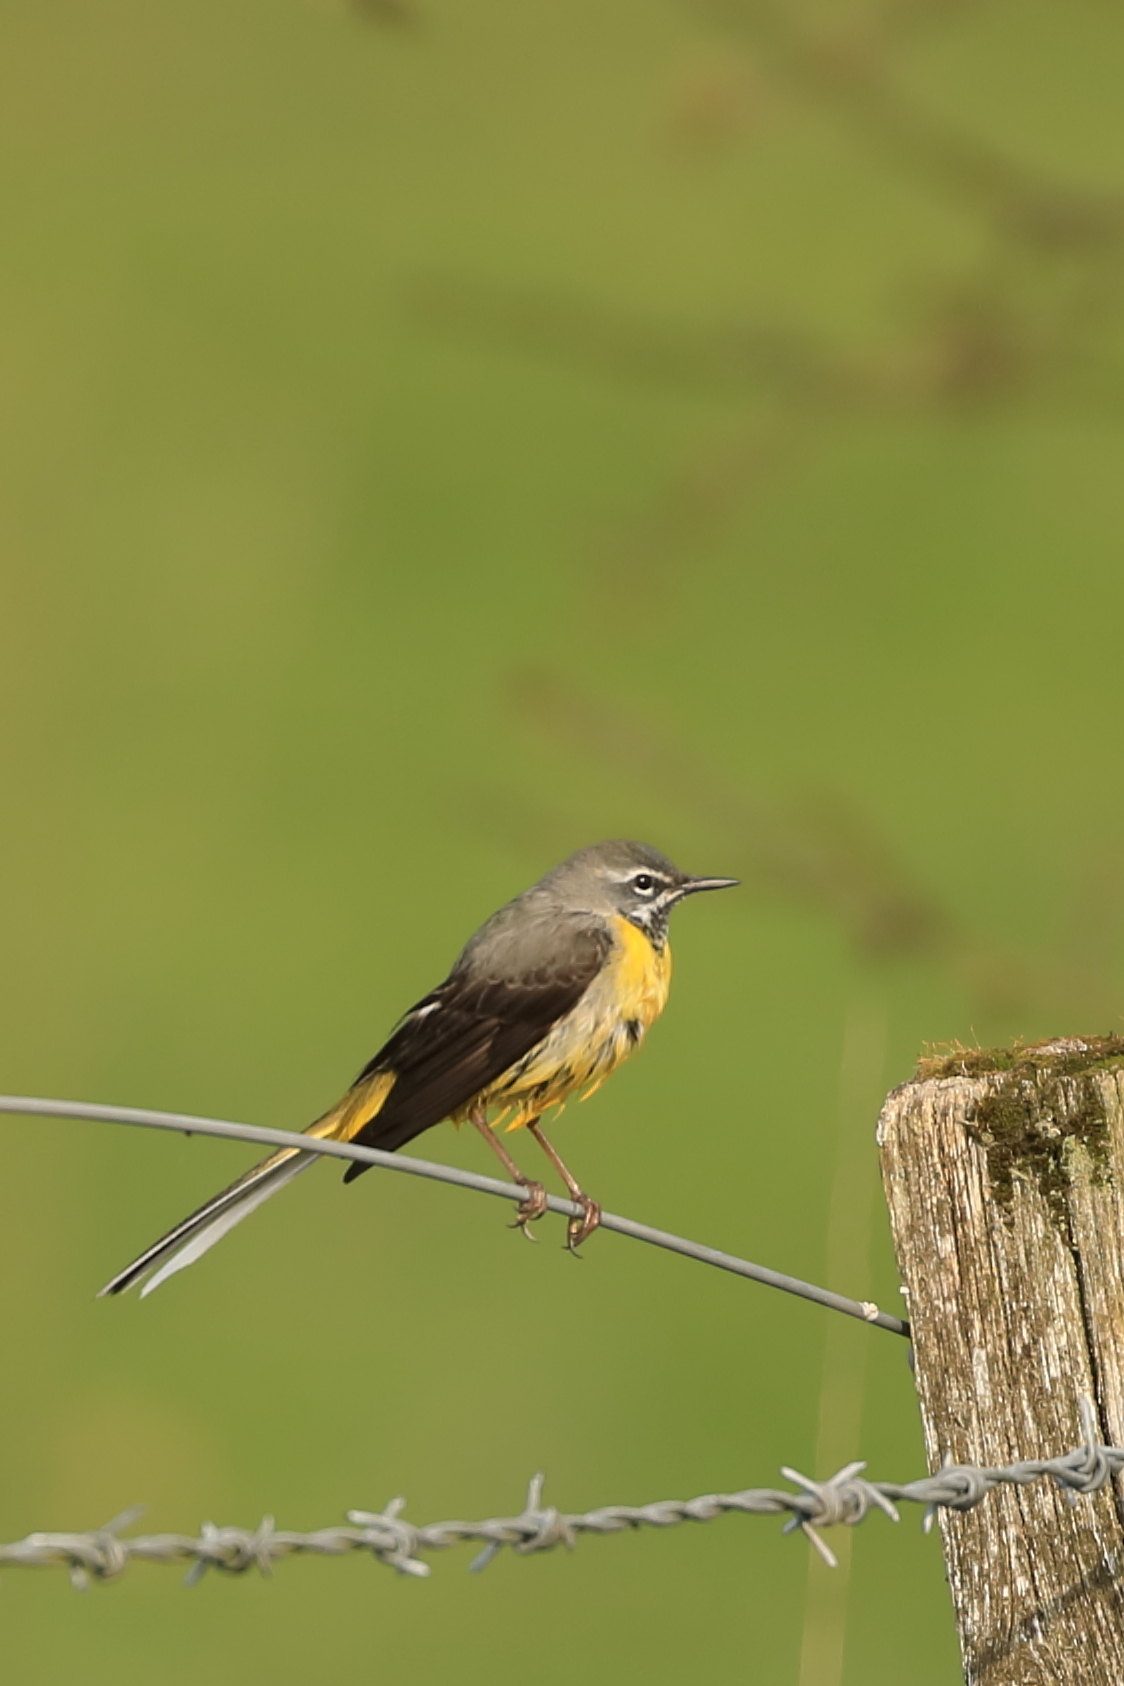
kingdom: Animalia
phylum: Chordata
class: Aves
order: Passeriformes
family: Motacillidae
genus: Motacilla
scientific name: Motacilla cinerea
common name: Grey wagtail
